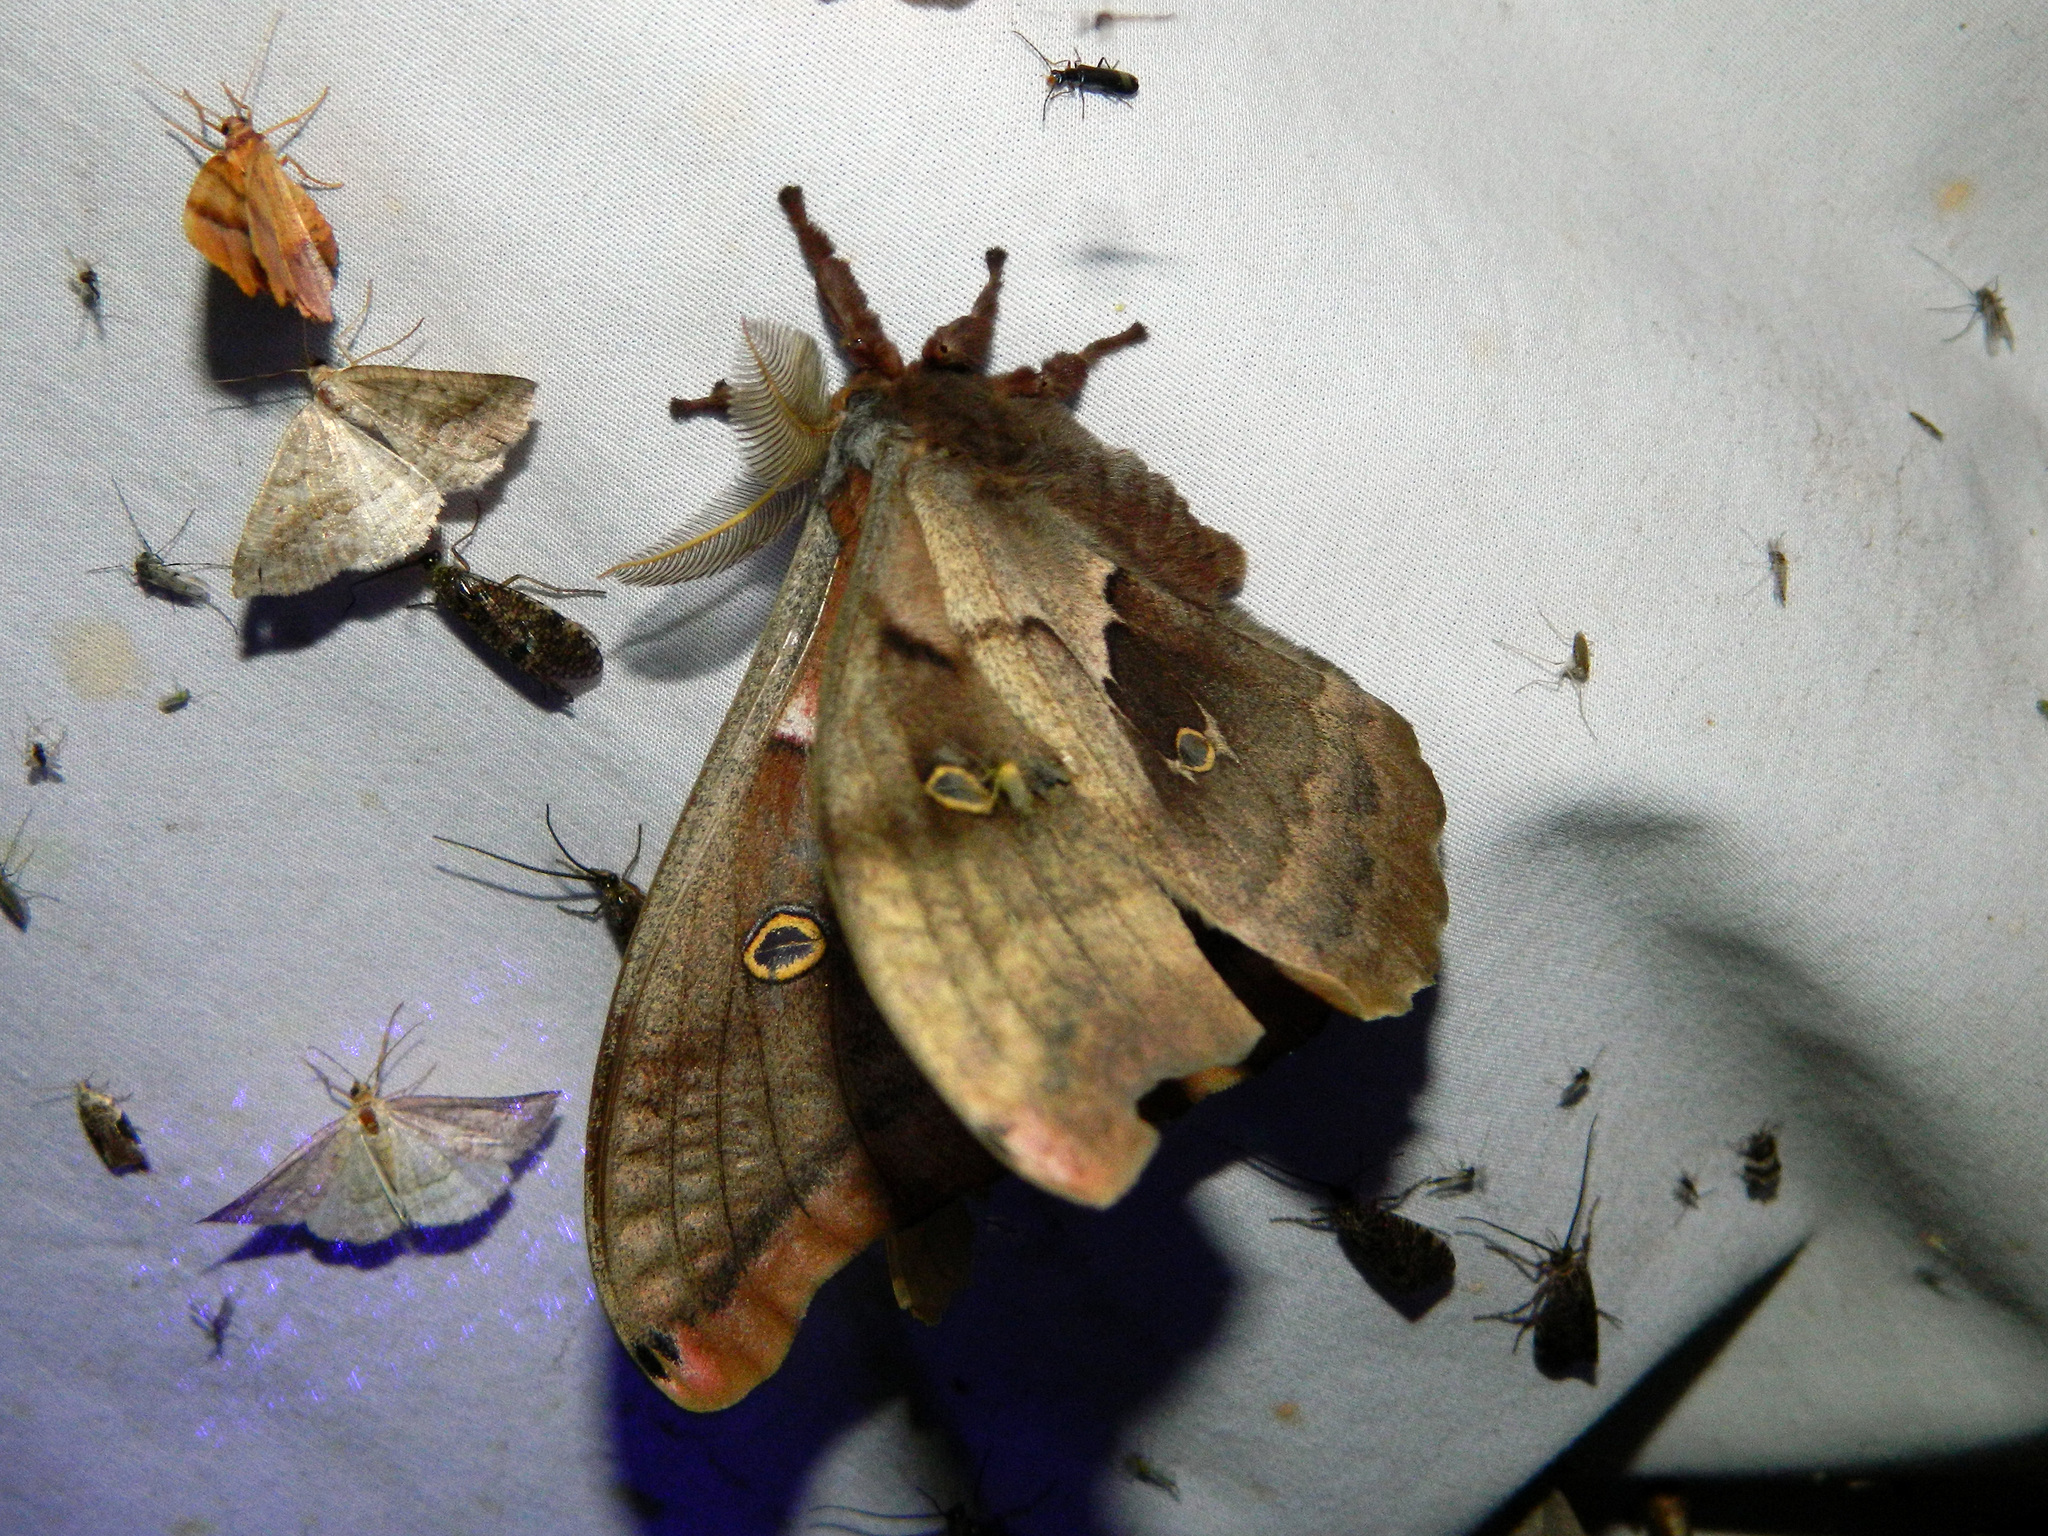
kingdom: Animalia
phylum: Arthropoda
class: Insecta
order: Lepidoptera
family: Saturniidae
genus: Antheraea
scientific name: Antheraea polyphemus
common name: Polyphemus moth
